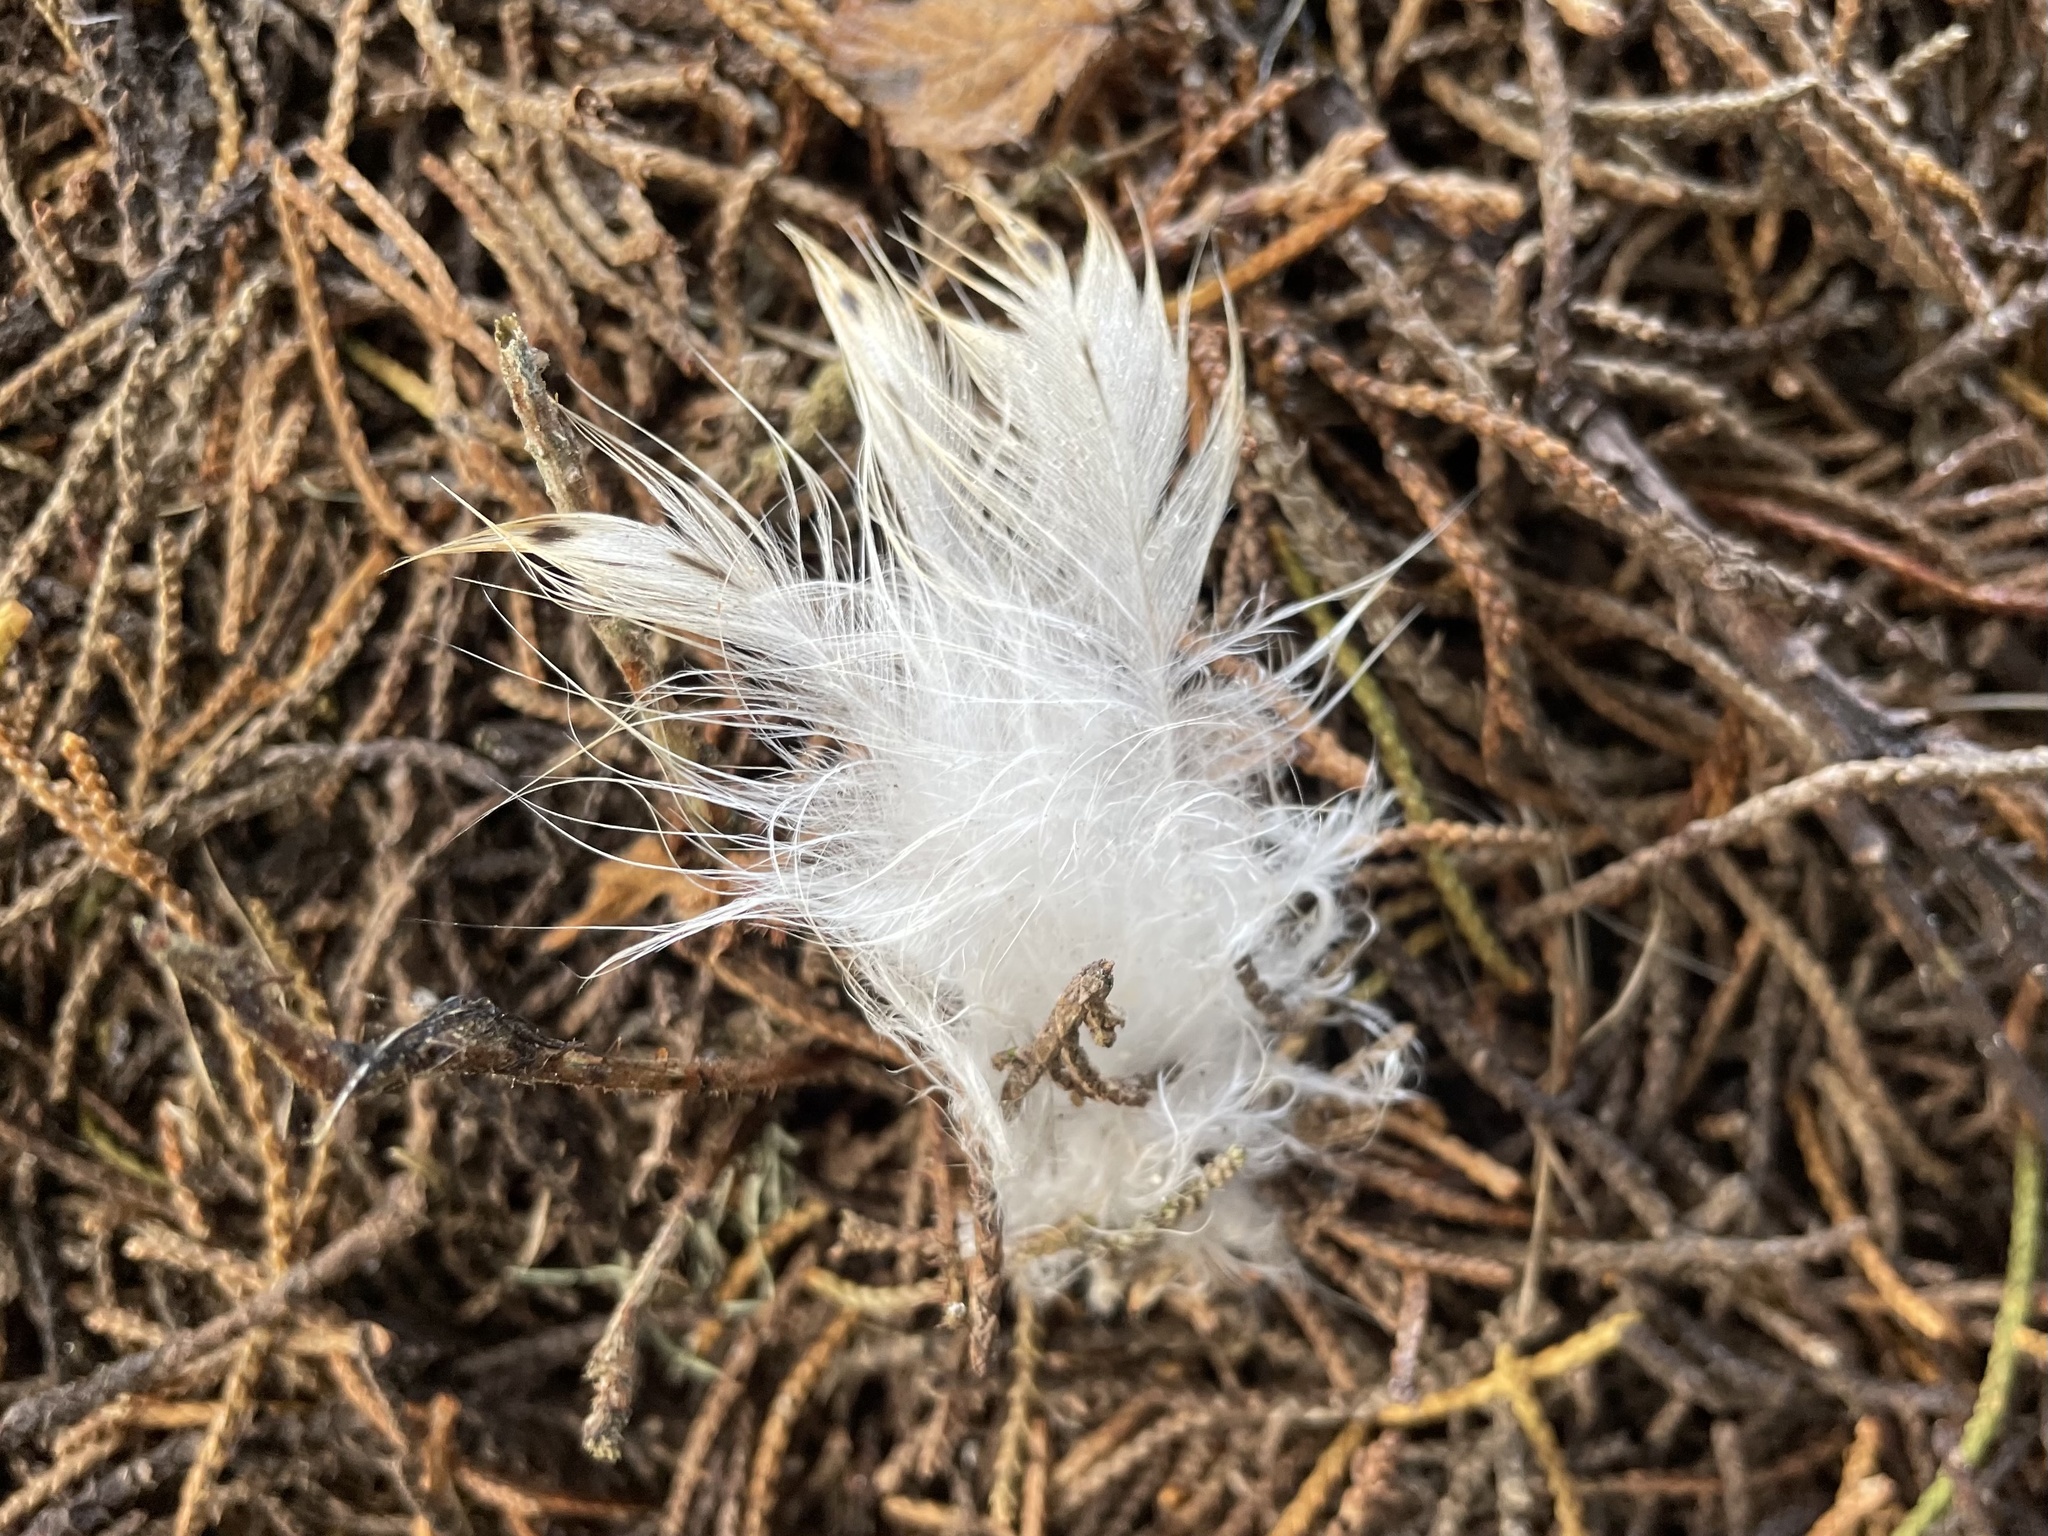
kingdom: Animalia
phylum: Chordata
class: Aves
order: Strigiformes
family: Tytonidae
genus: Tyto
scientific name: Tyto alba
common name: Barn owl
